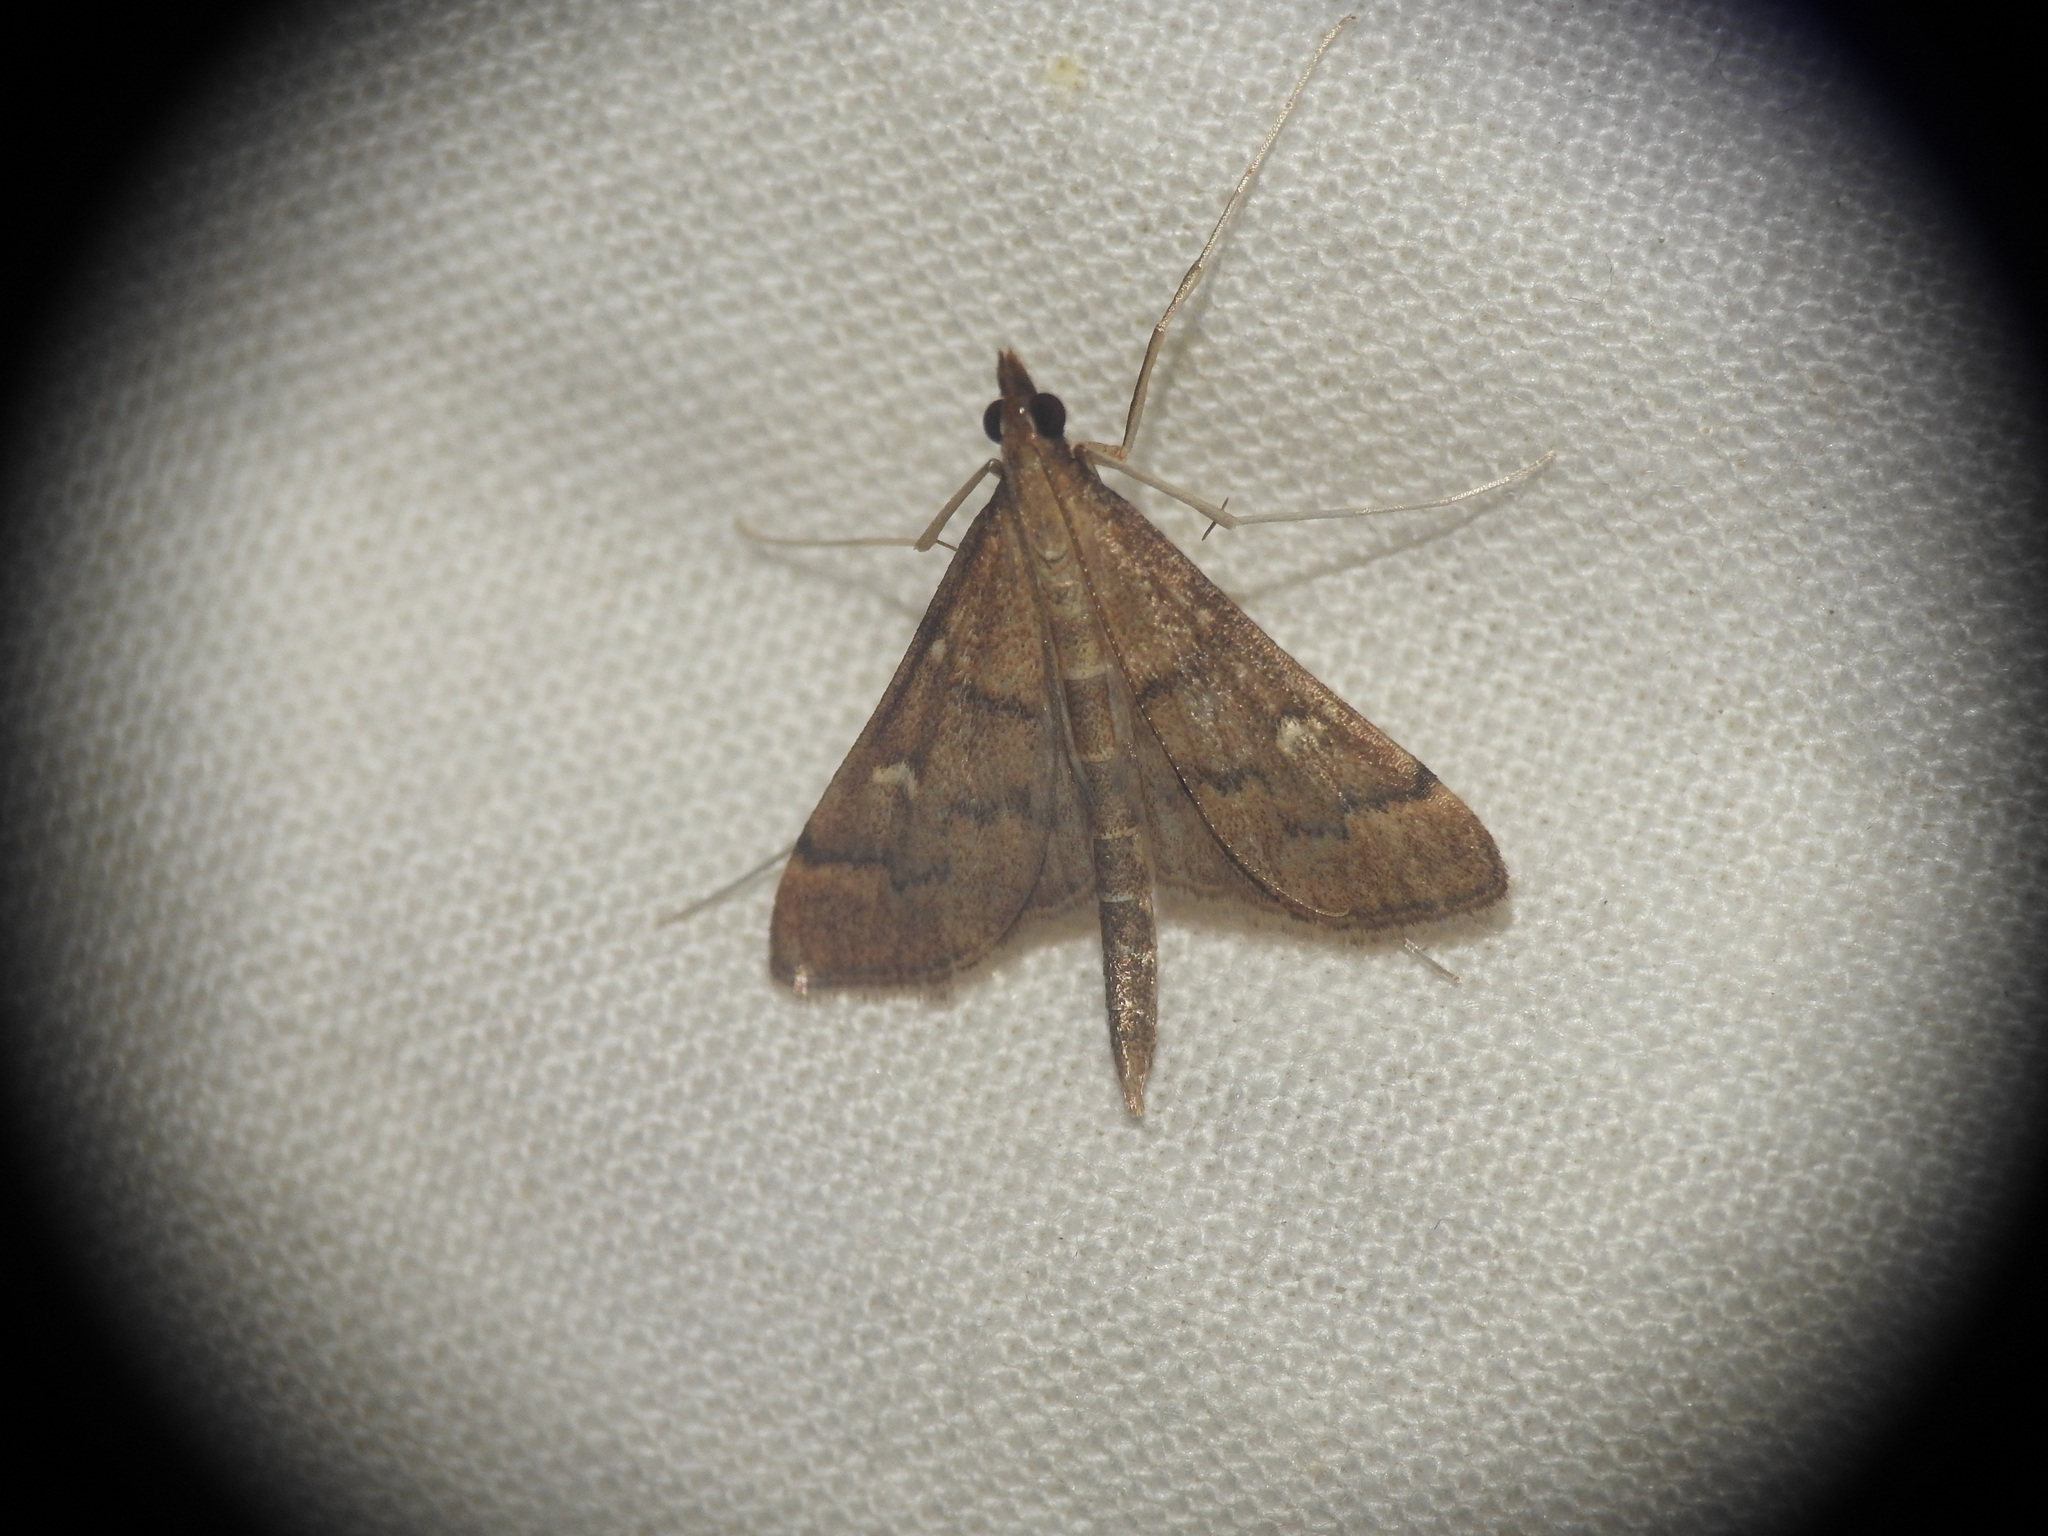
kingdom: Animalia
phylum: Arthropoda
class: Insecta
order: Lepidoptera
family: Crambidae
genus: Stenia
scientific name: Stenia Dolicharthria punctalis
